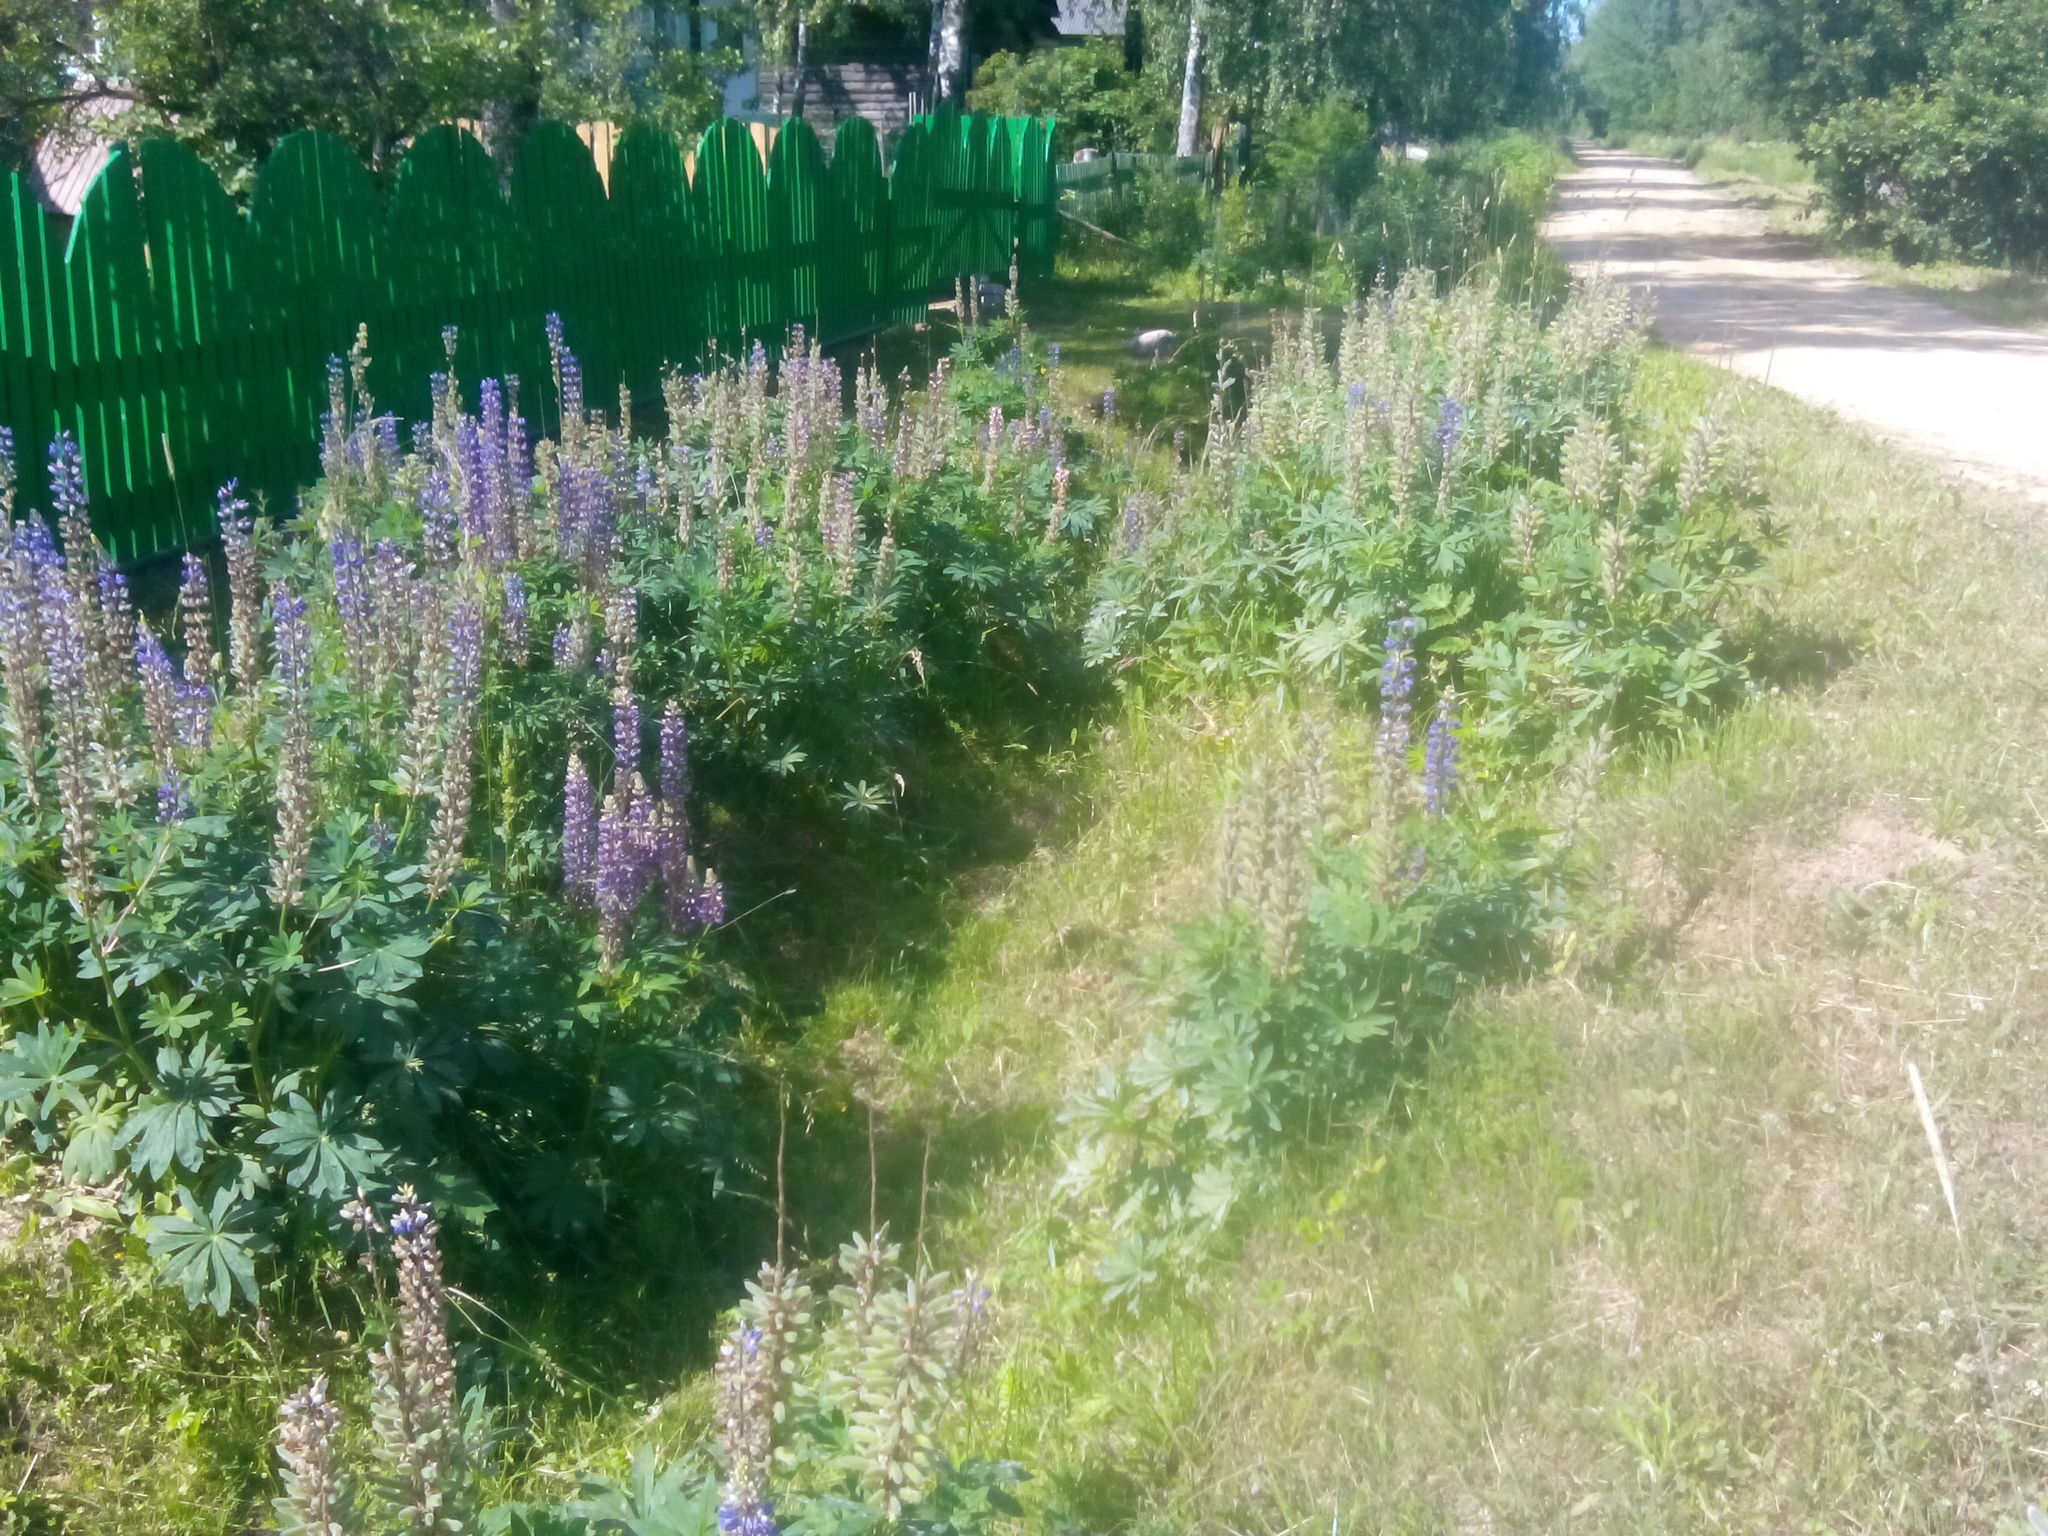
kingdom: Plantae
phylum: Tracheophyta
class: Magnoliopsida
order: Fabales
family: Fabaceae
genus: Lupinus
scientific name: Lupinus polyphyllus
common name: Garden lupin
